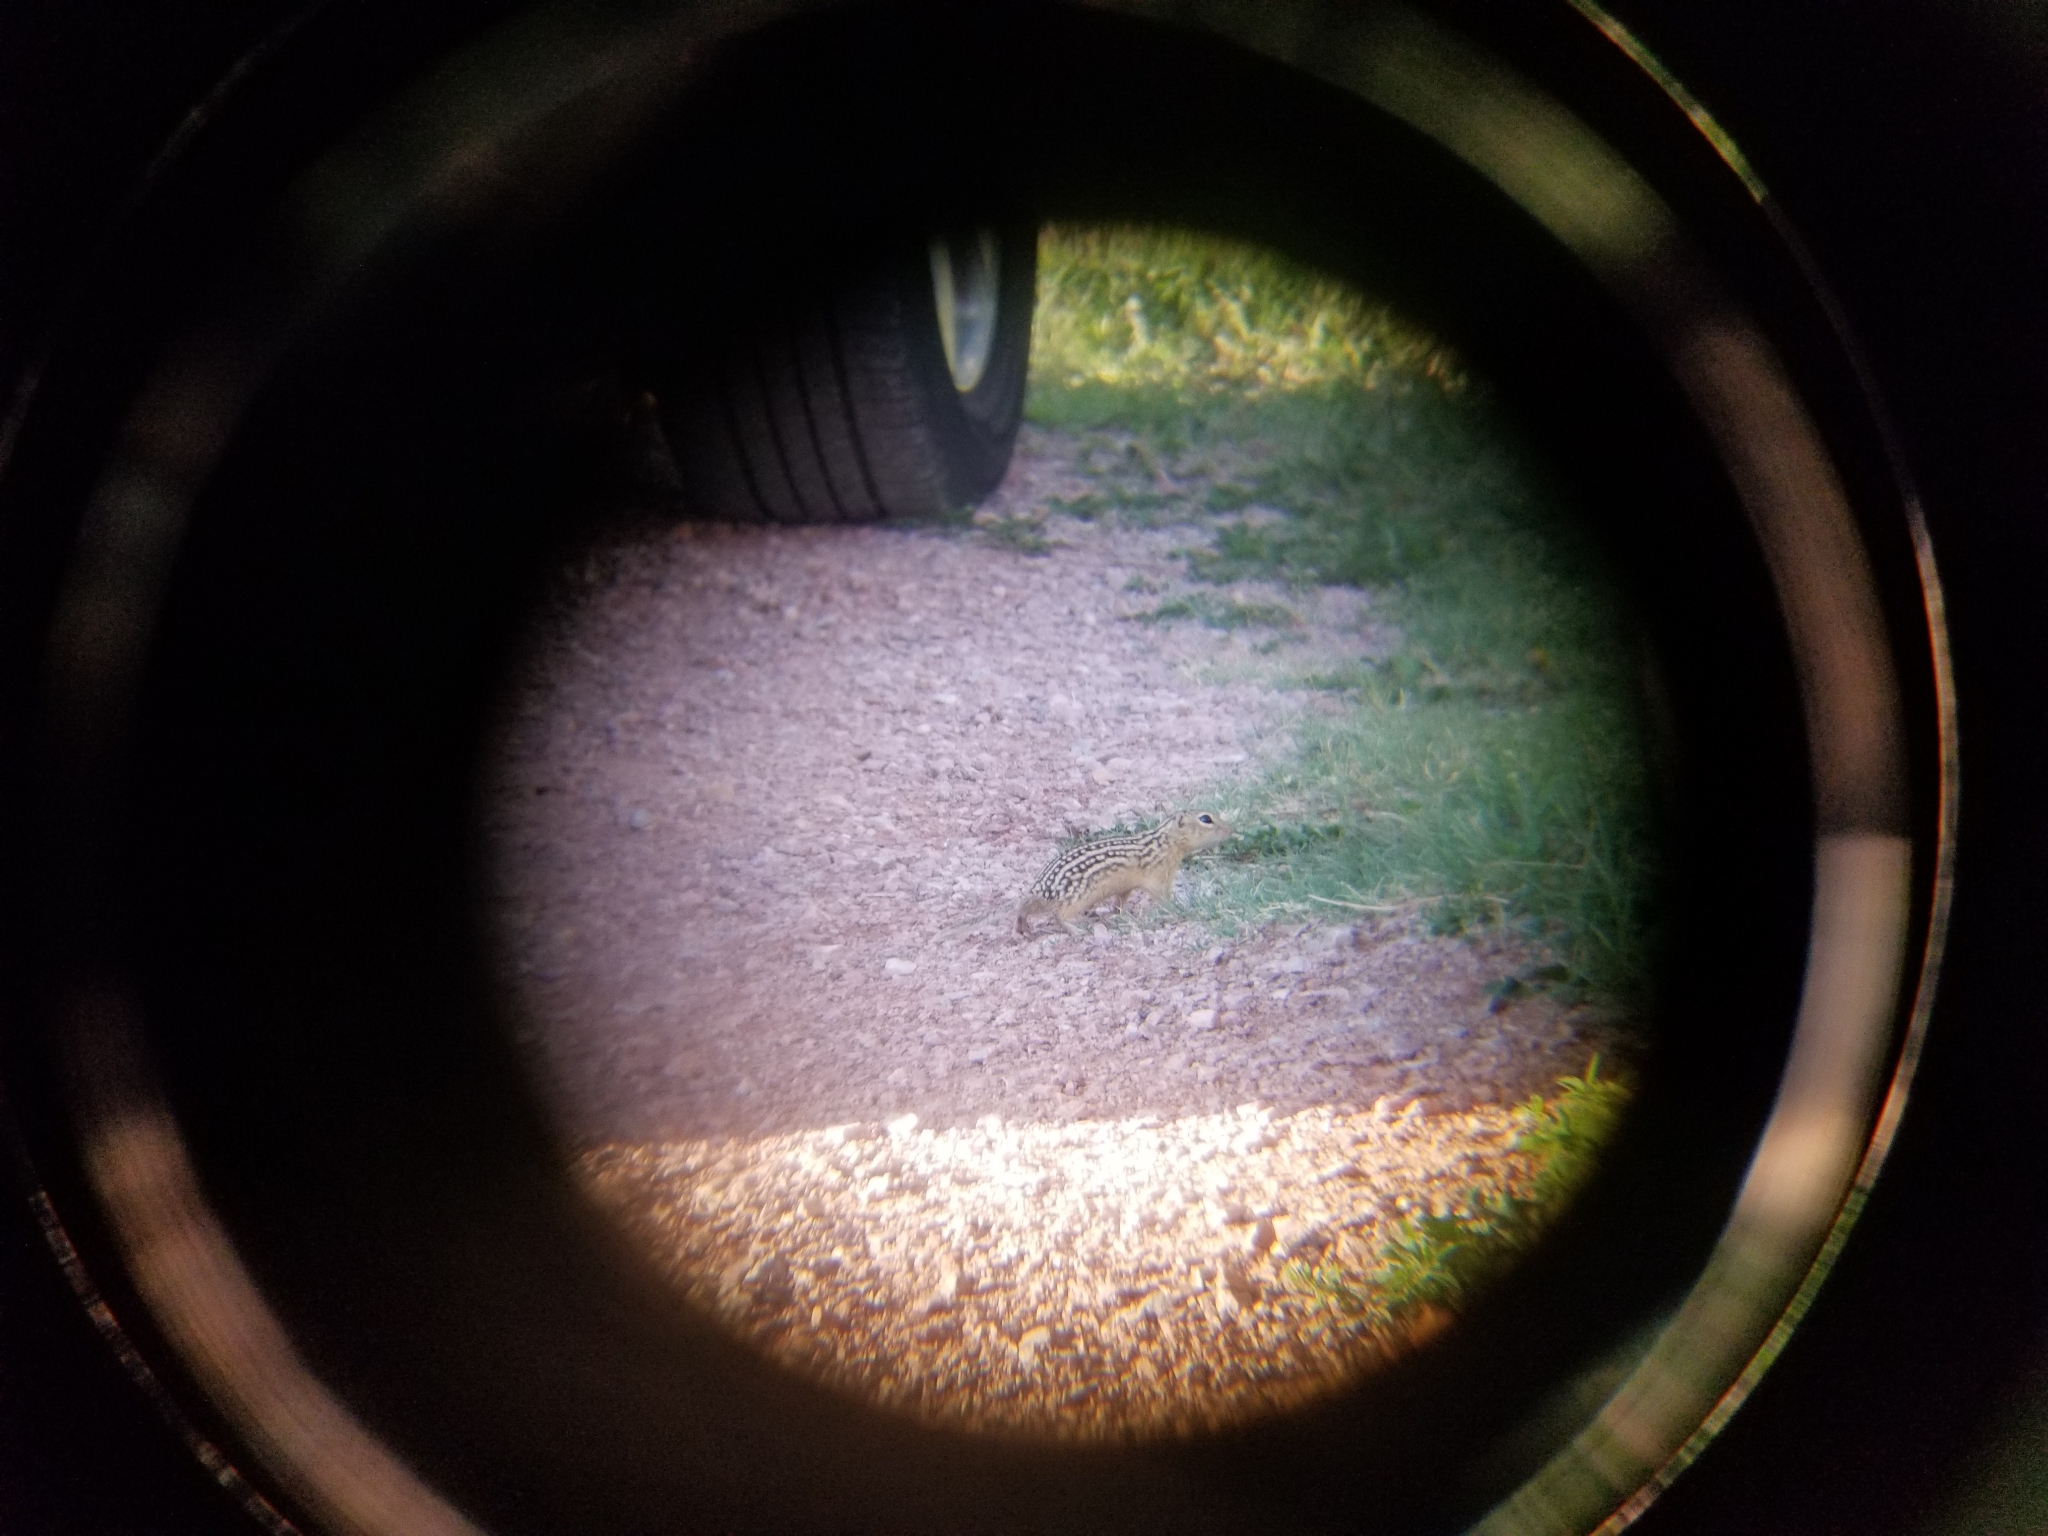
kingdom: Animalia
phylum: Chordata
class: Mammalia
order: Rodentia
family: Sciuridae
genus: Ictidomys
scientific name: Ictidomys tridecemlineatus
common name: Thirteen-lined ground squirrel
